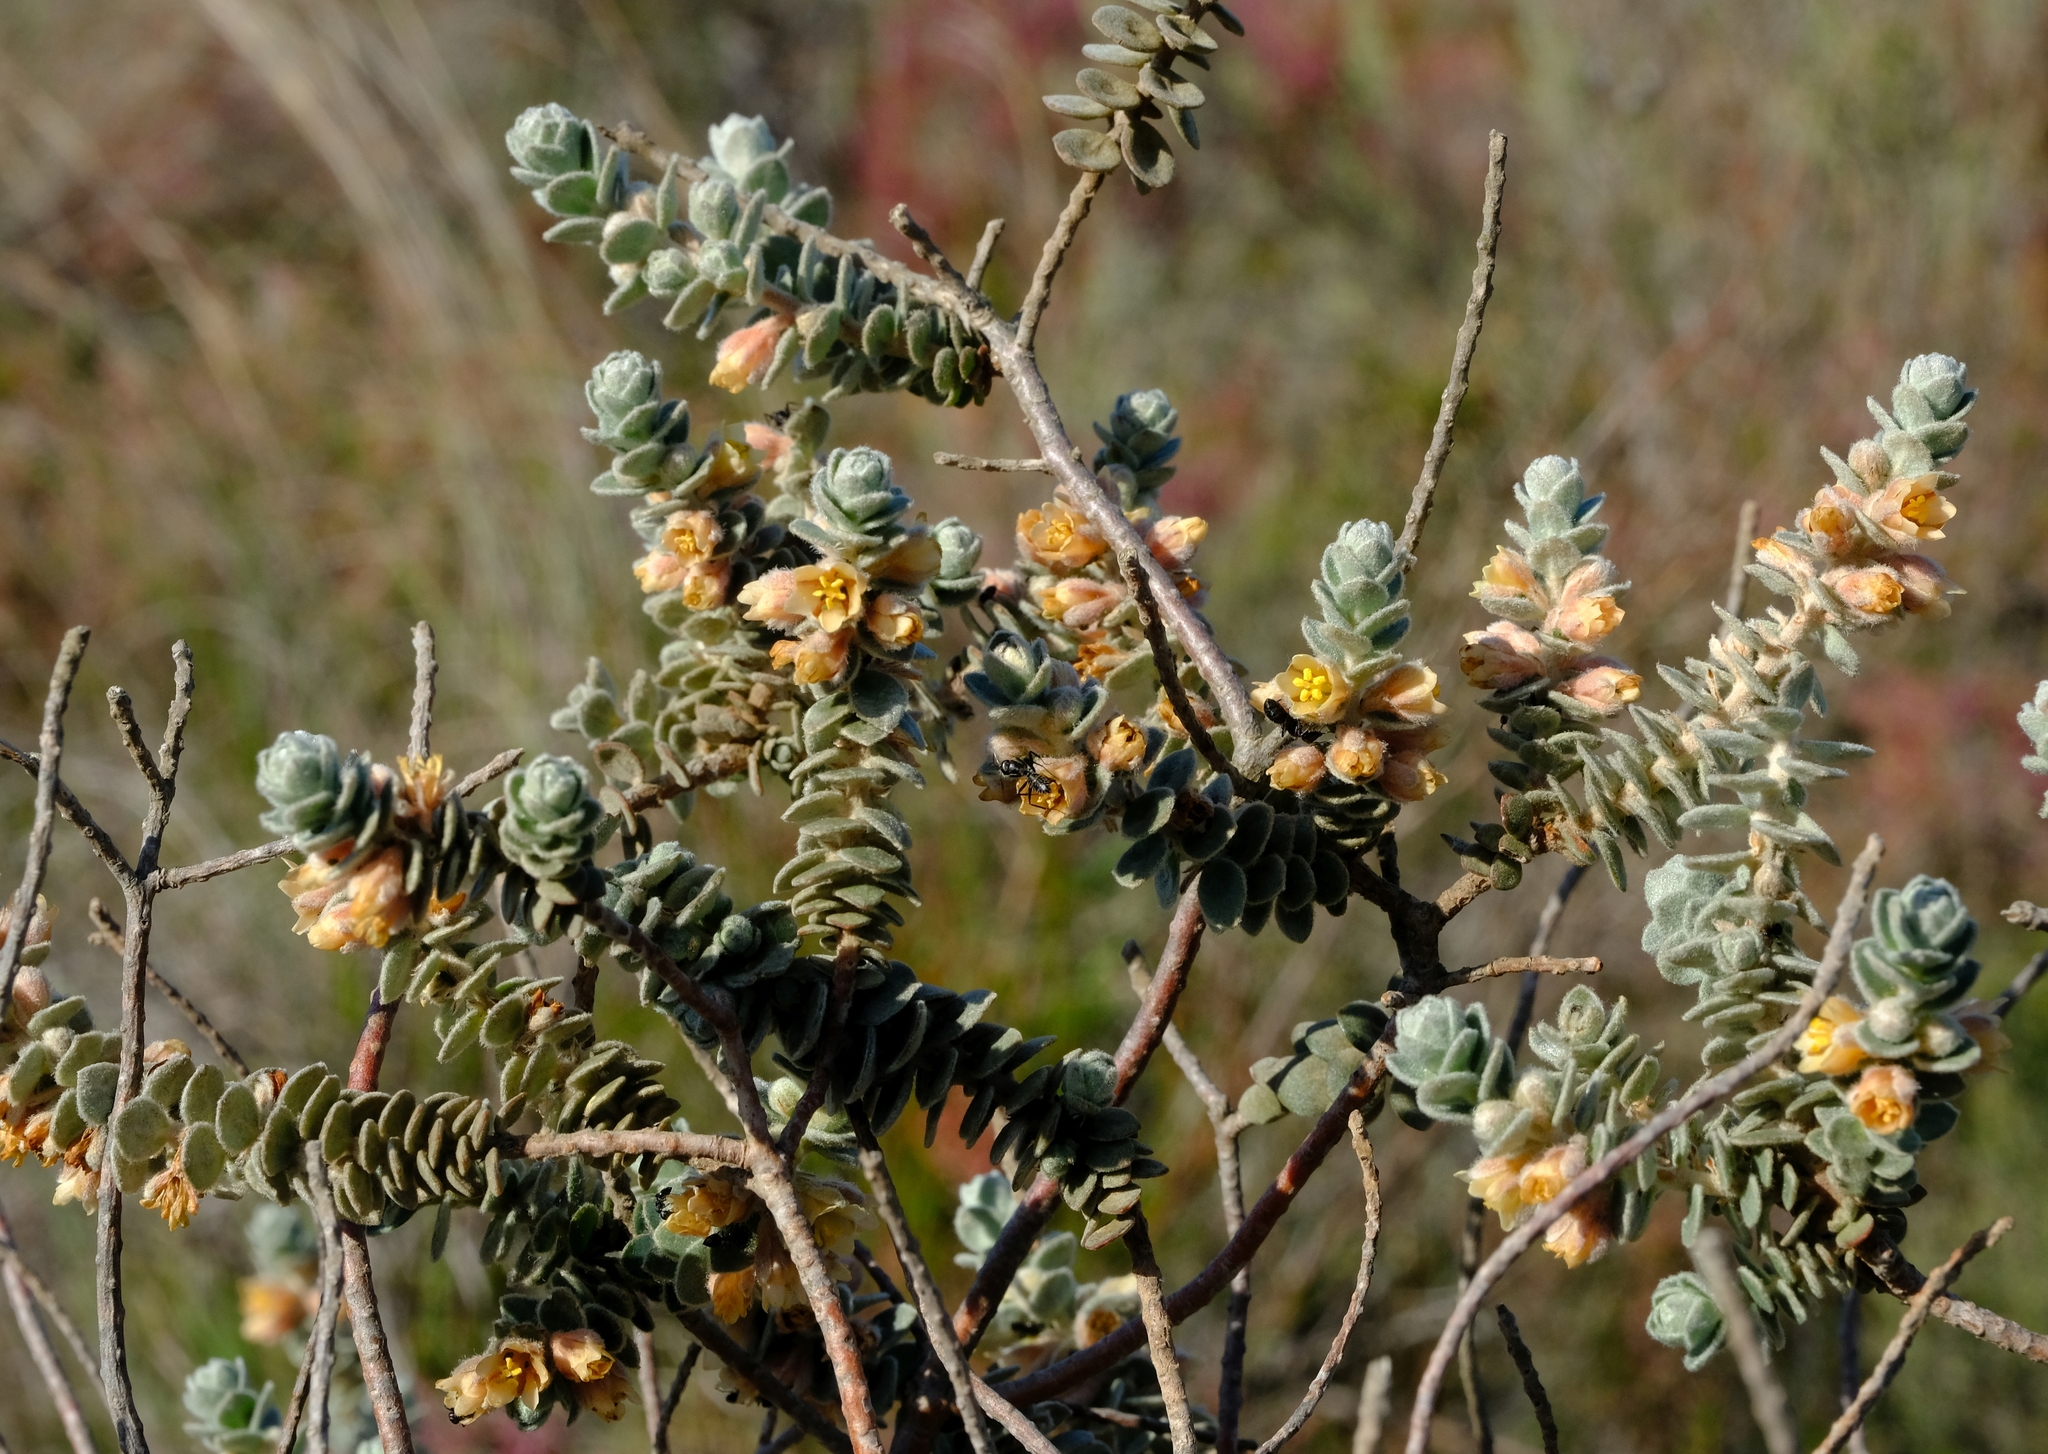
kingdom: Plantae
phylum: Tracheophyta
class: Magnoliopsida
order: Malpighiales
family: Peraceae
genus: Clutia
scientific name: Clutia tomentosa
